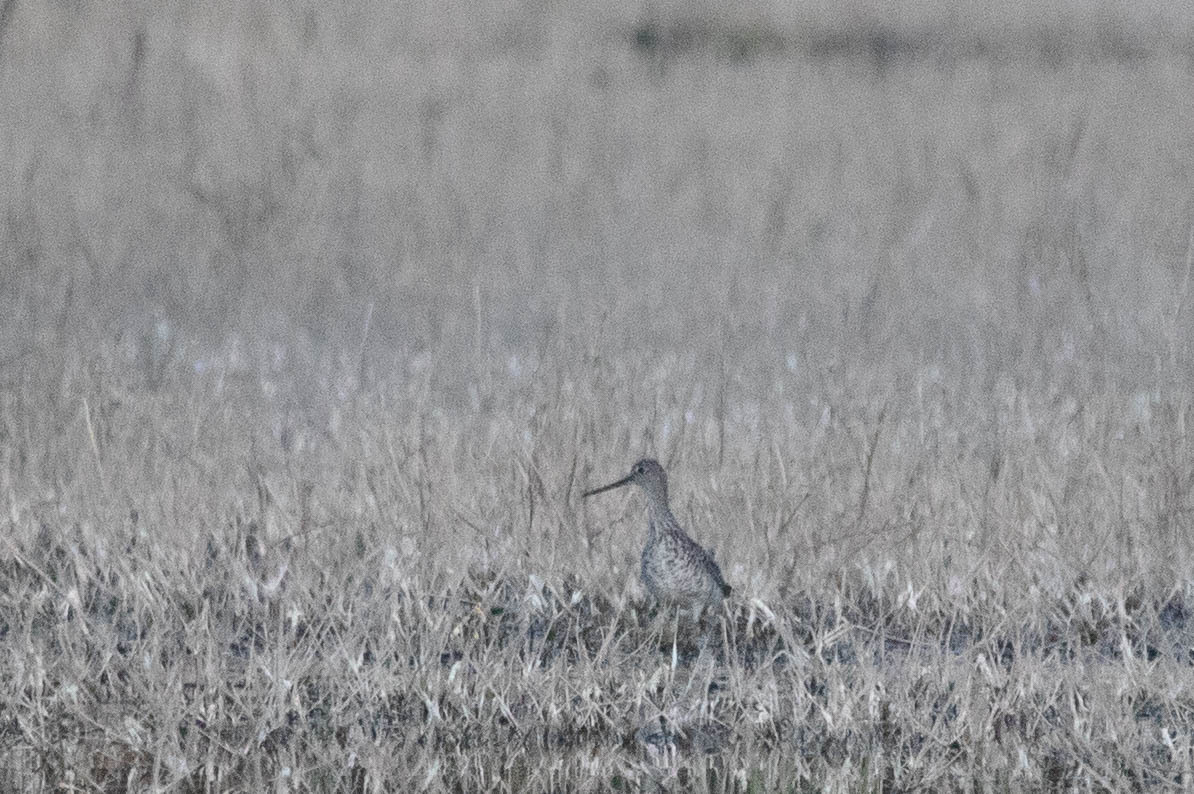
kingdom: Animalia
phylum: Chordata
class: Aves
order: Charadriiformes
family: Scolopacidae
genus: Tringa
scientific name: Tringa melanoleuca
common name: Greater yellowlegs
